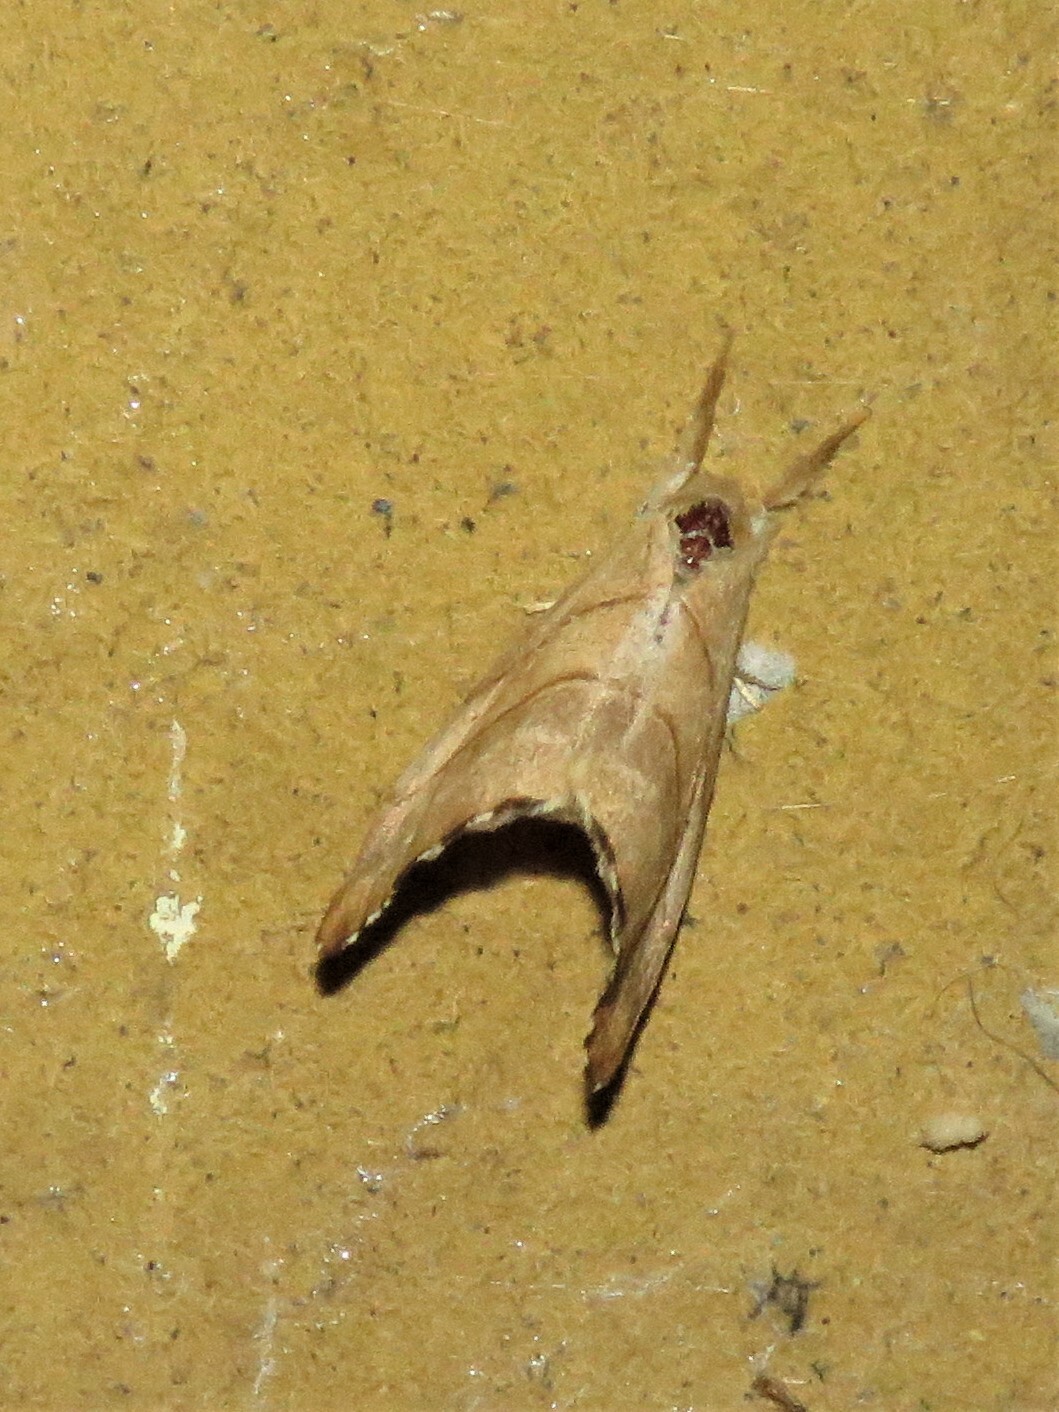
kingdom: Animalia
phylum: Arthropoda
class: Insecta
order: Lepidoptera
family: Drepanidae
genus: Falcaria
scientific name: Falcaria lacertinaria
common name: Scalloped hook-tip
